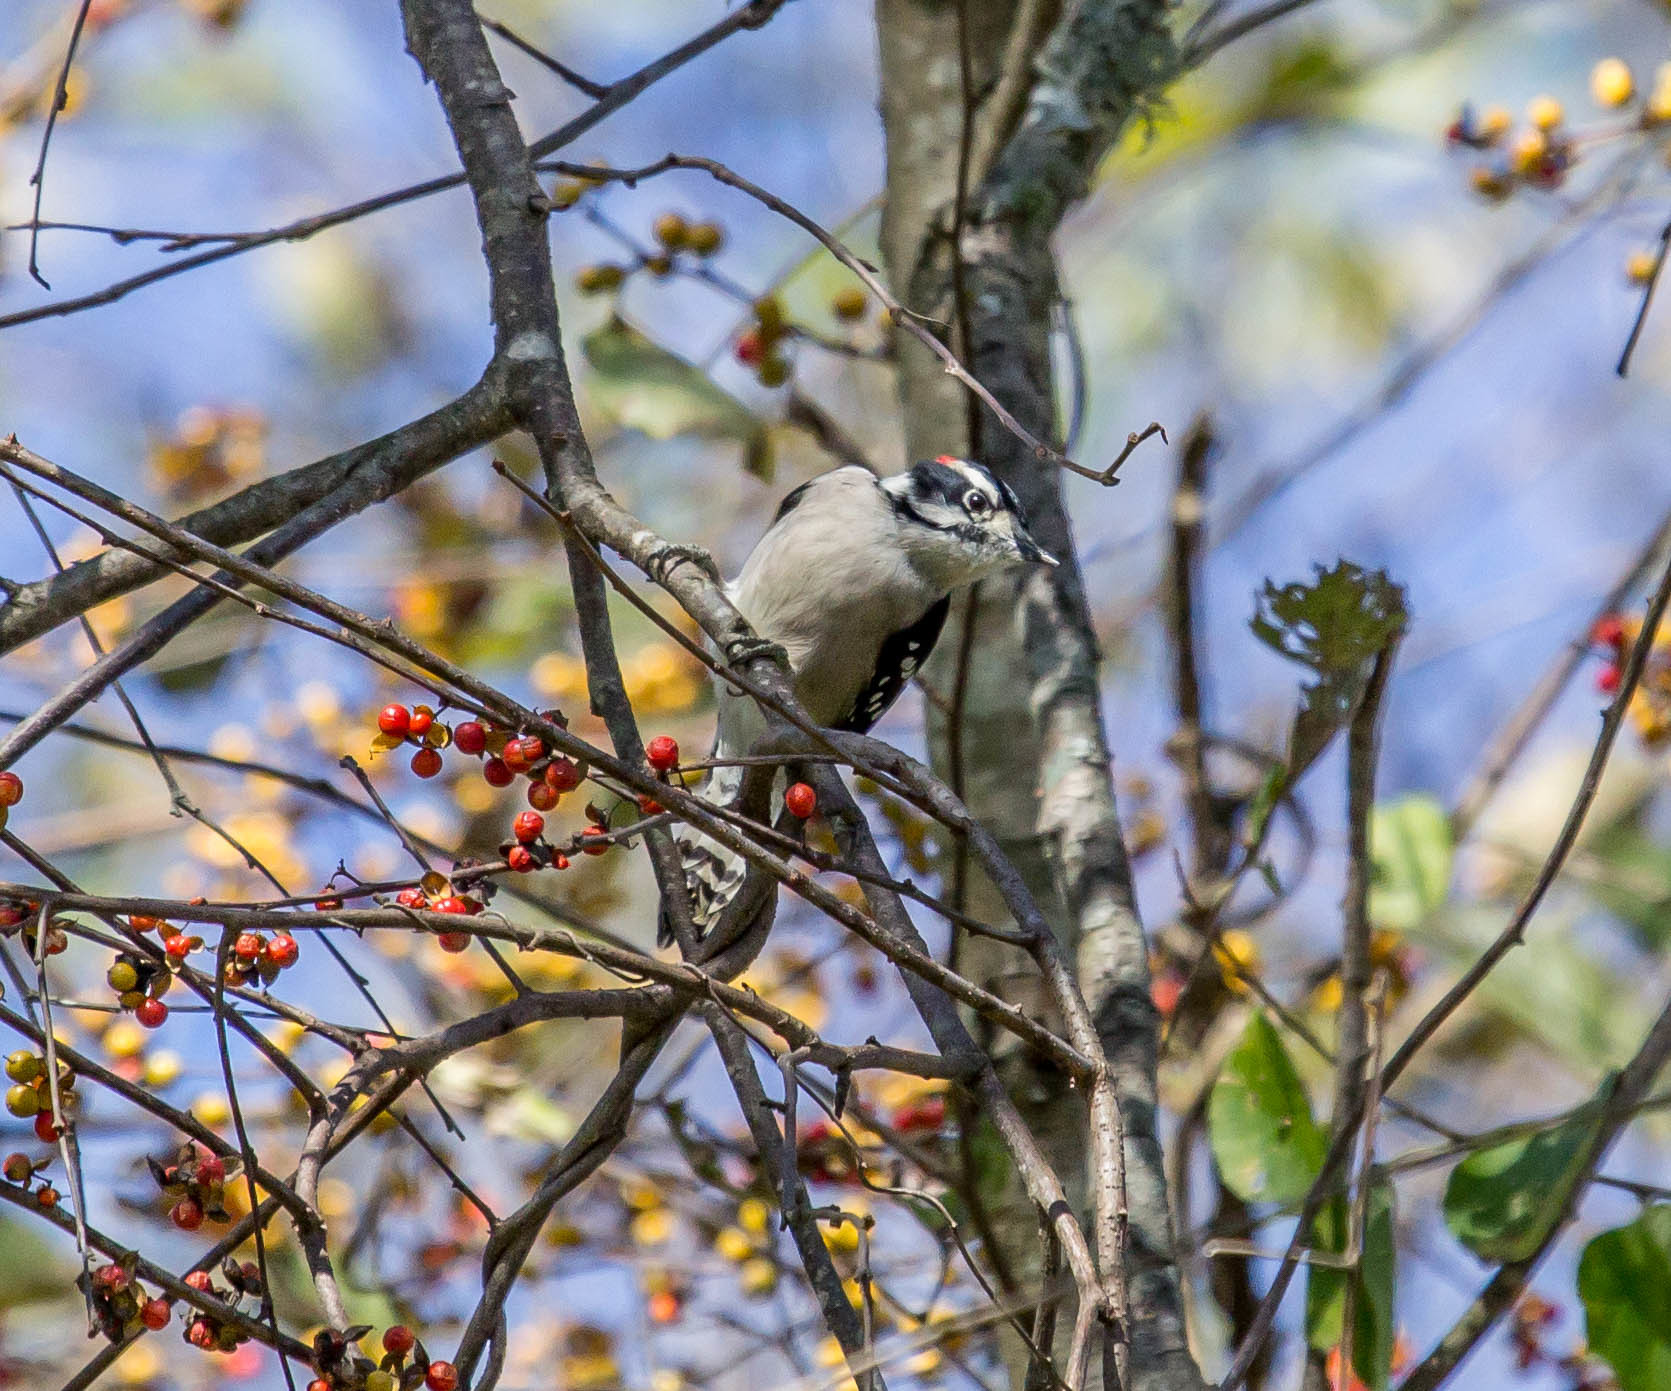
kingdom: Animalia
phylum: Chordata
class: Aves
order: Piciformes
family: Picidae
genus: Dryobates
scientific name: Dryobates pubescens
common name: Downy woodpecker
